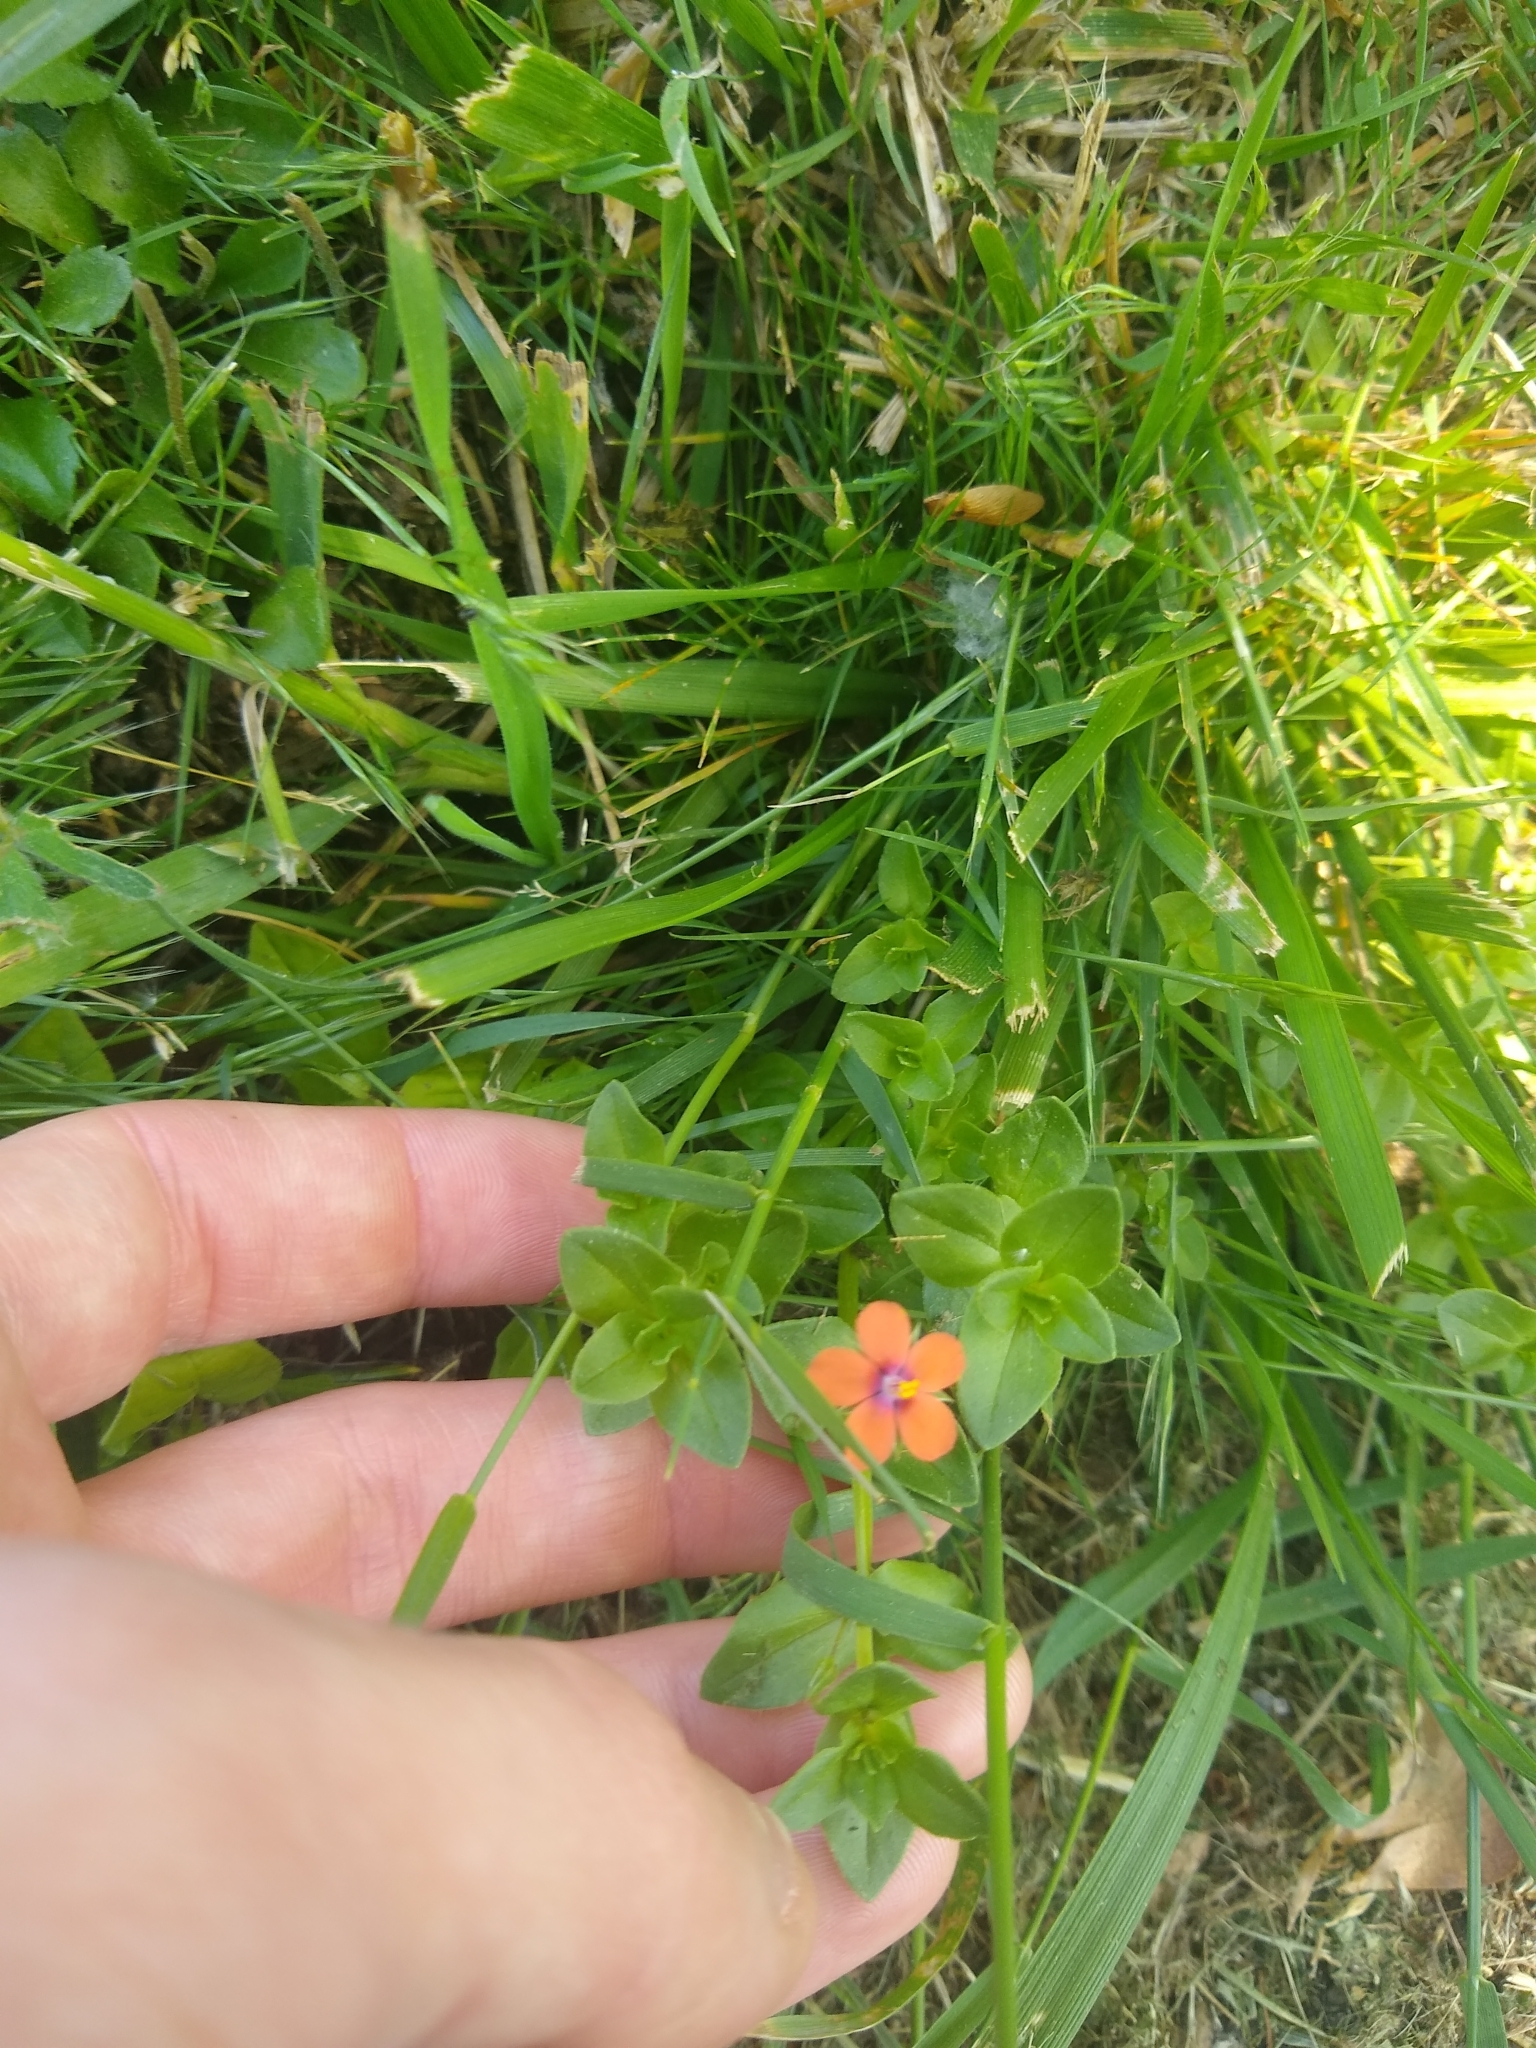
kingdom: Plantae
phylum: Tracheophyta
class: Magnoliopsida
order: Ericales
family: Primulaceae
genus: Lysimachia
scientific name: Lysimachia arvensis
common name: Scarlet pimpernel
